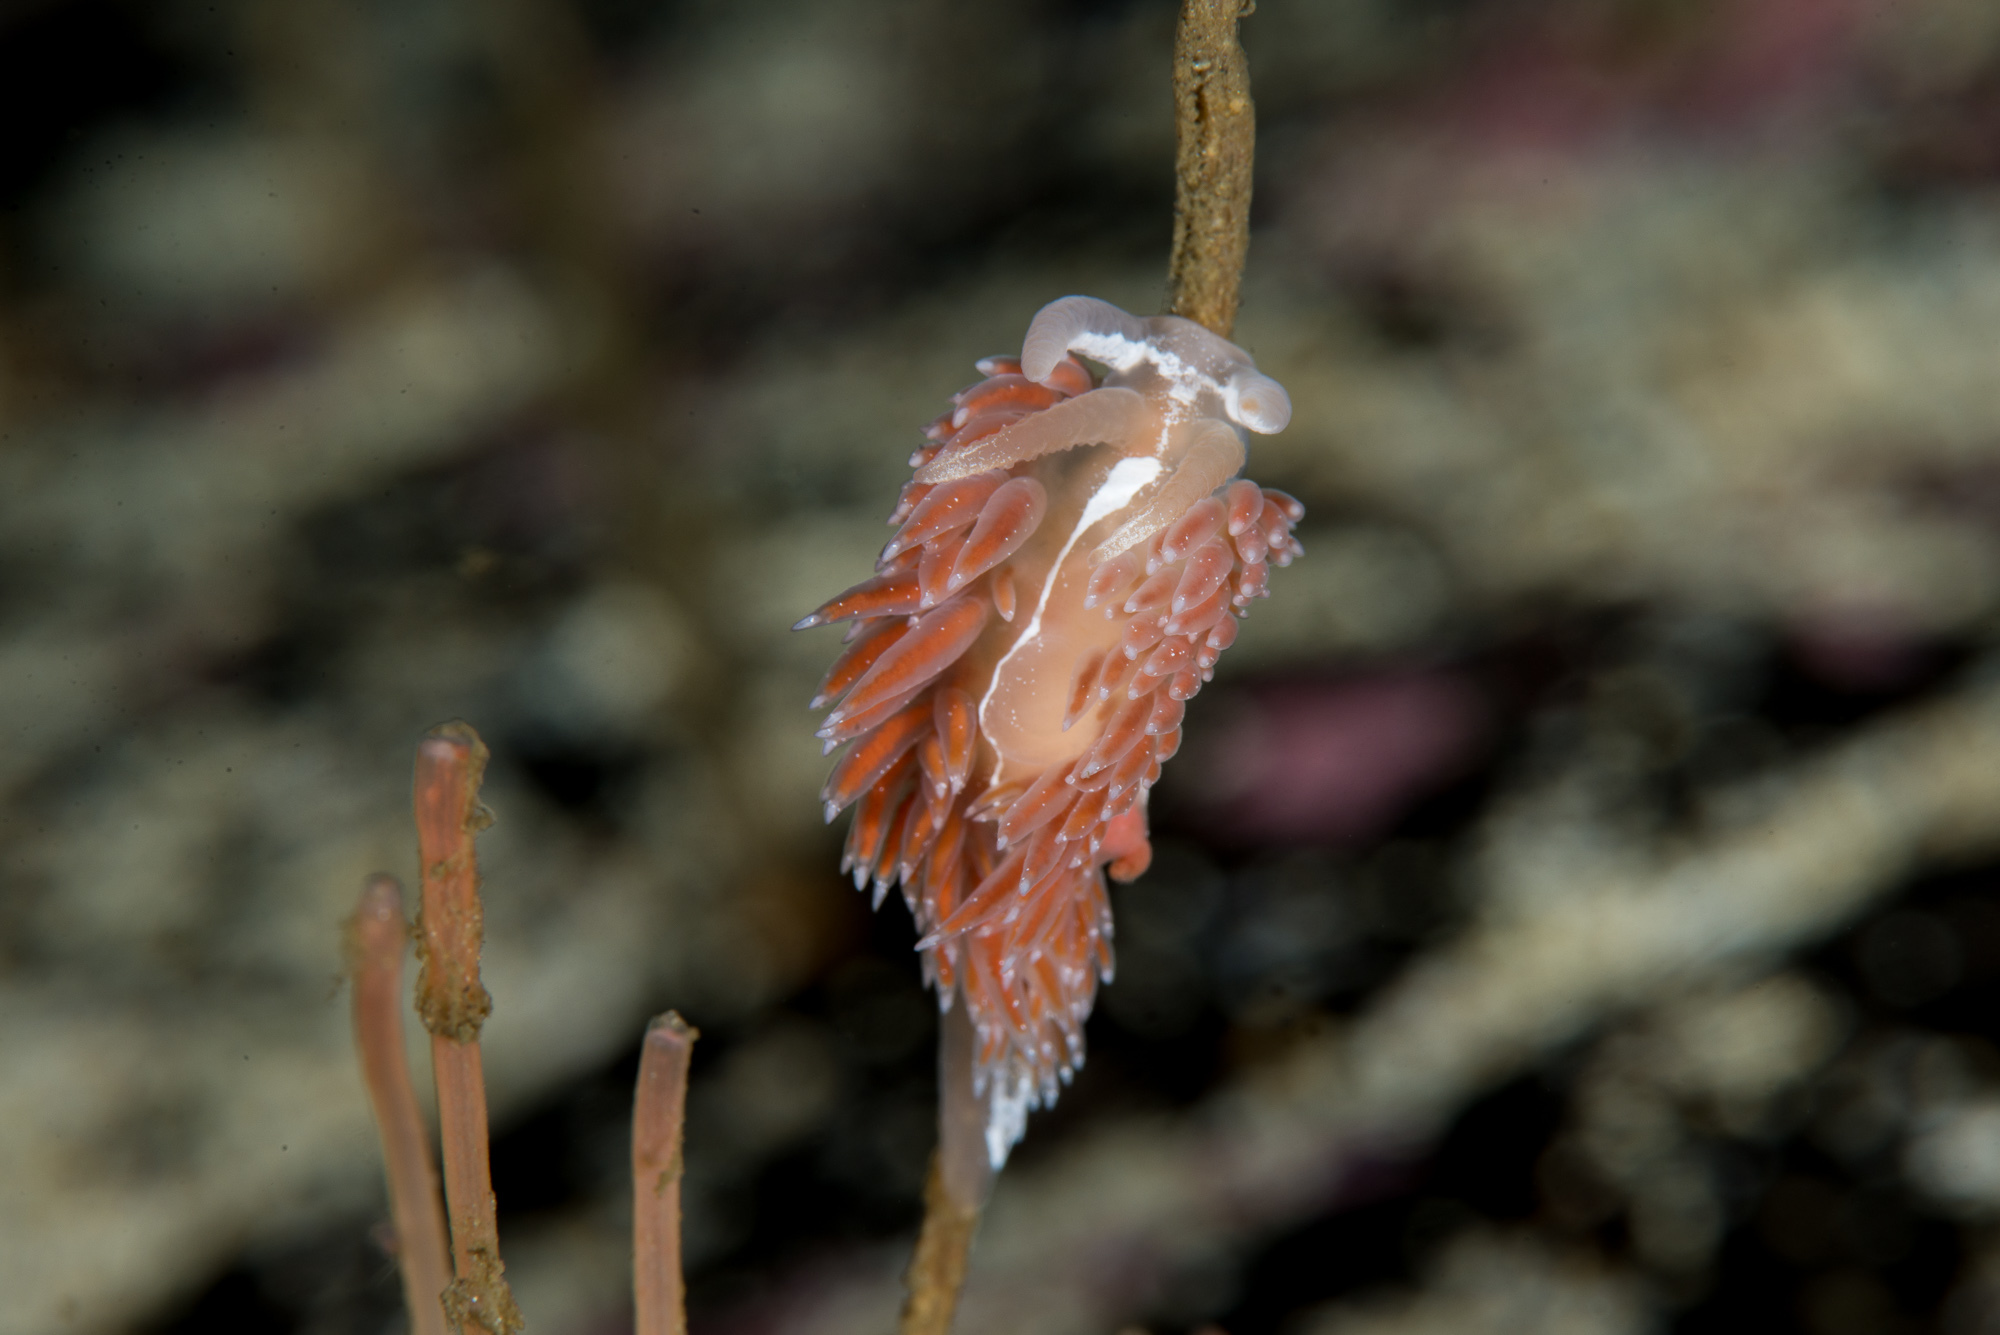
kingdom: Animalia
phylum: Mollusca
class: Gastropoda
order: Nudibranchia
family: Coryphellidae
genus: Coryphella
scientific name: Coryphella monicae
